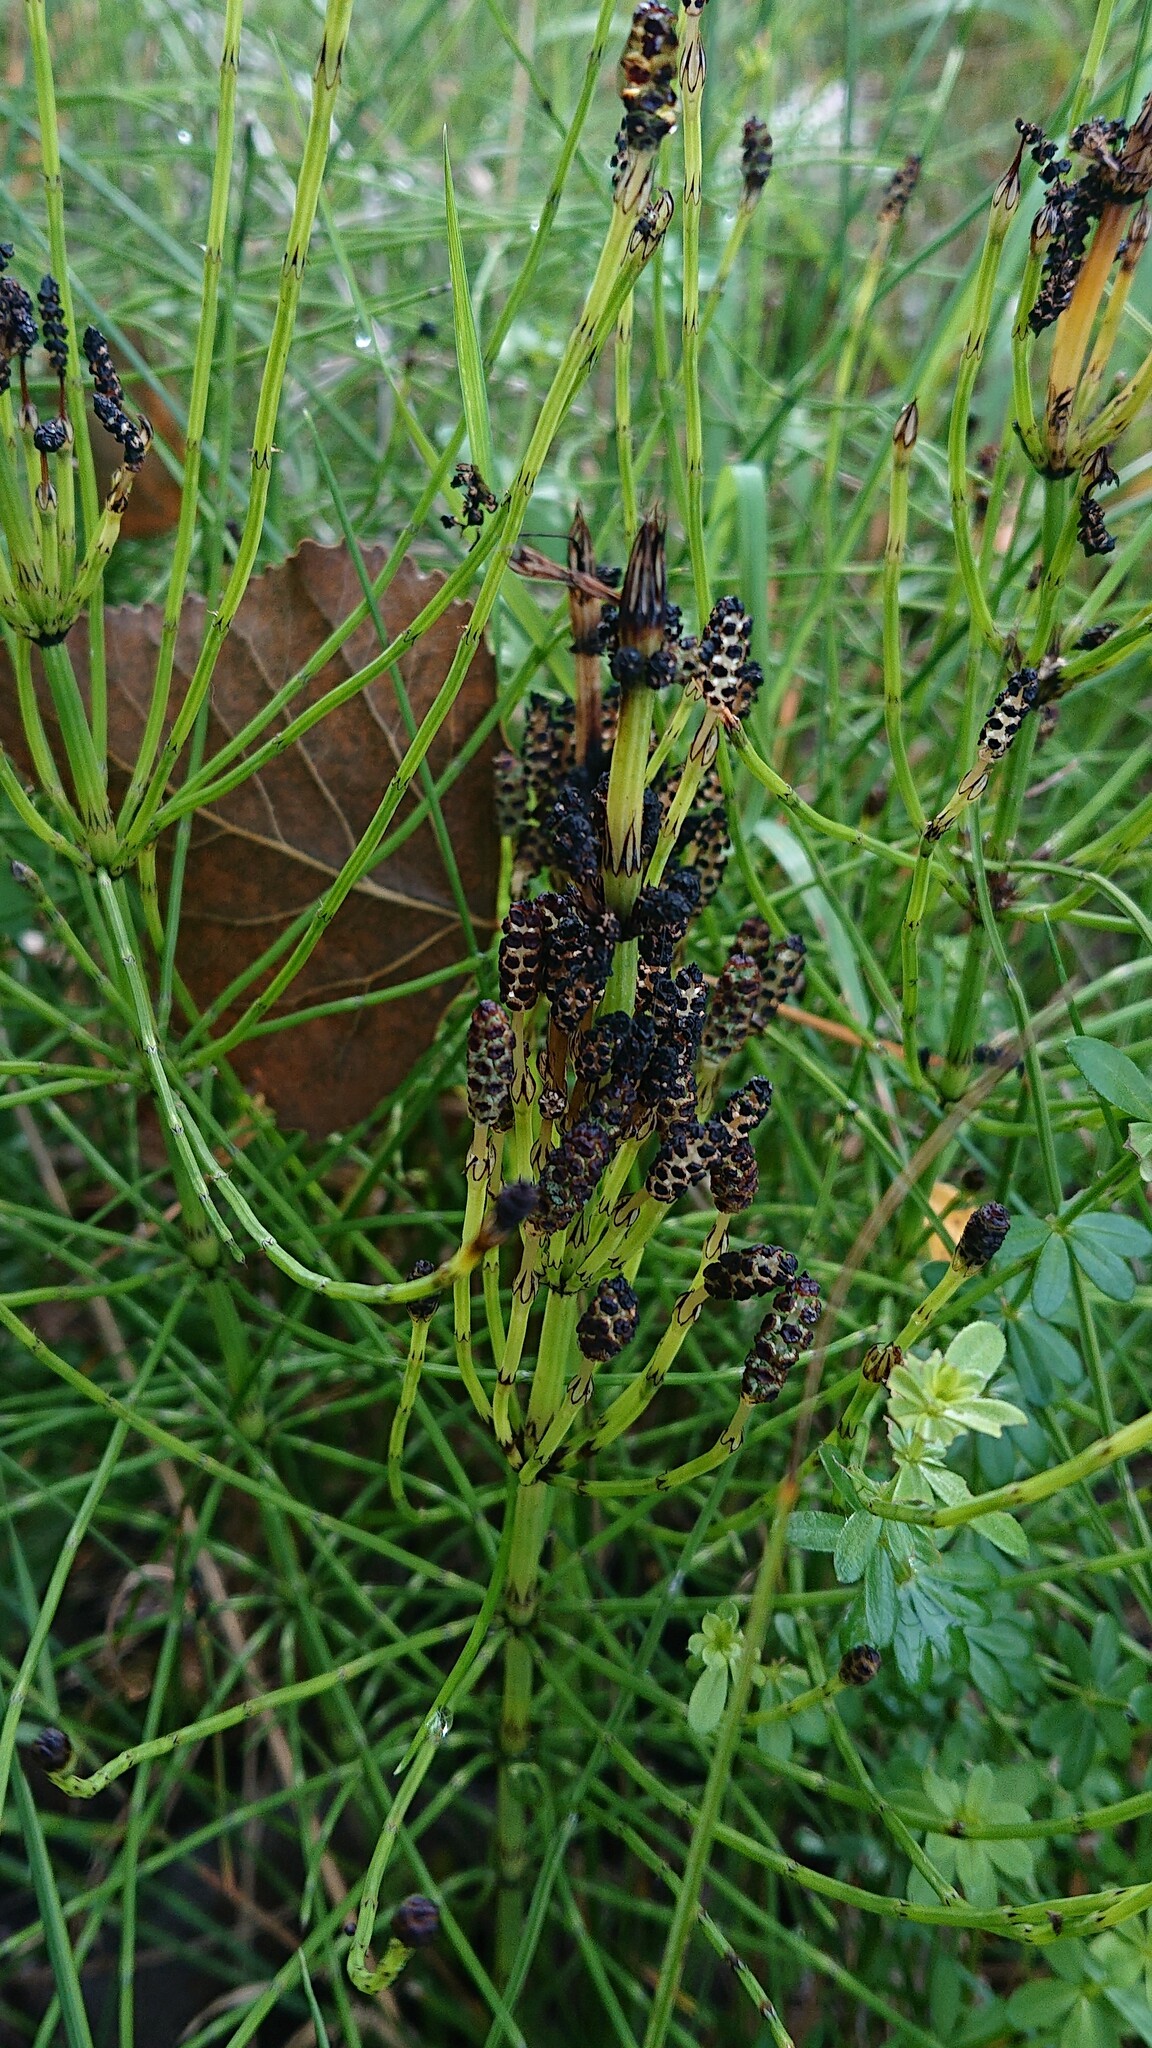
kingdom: Plantae
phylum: Tracheophyta
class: Polypodiopsida
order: Equisetales
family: Equisetaceae
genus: Equisetum
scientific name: Equisetum palustre
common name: Marsh horsetail
